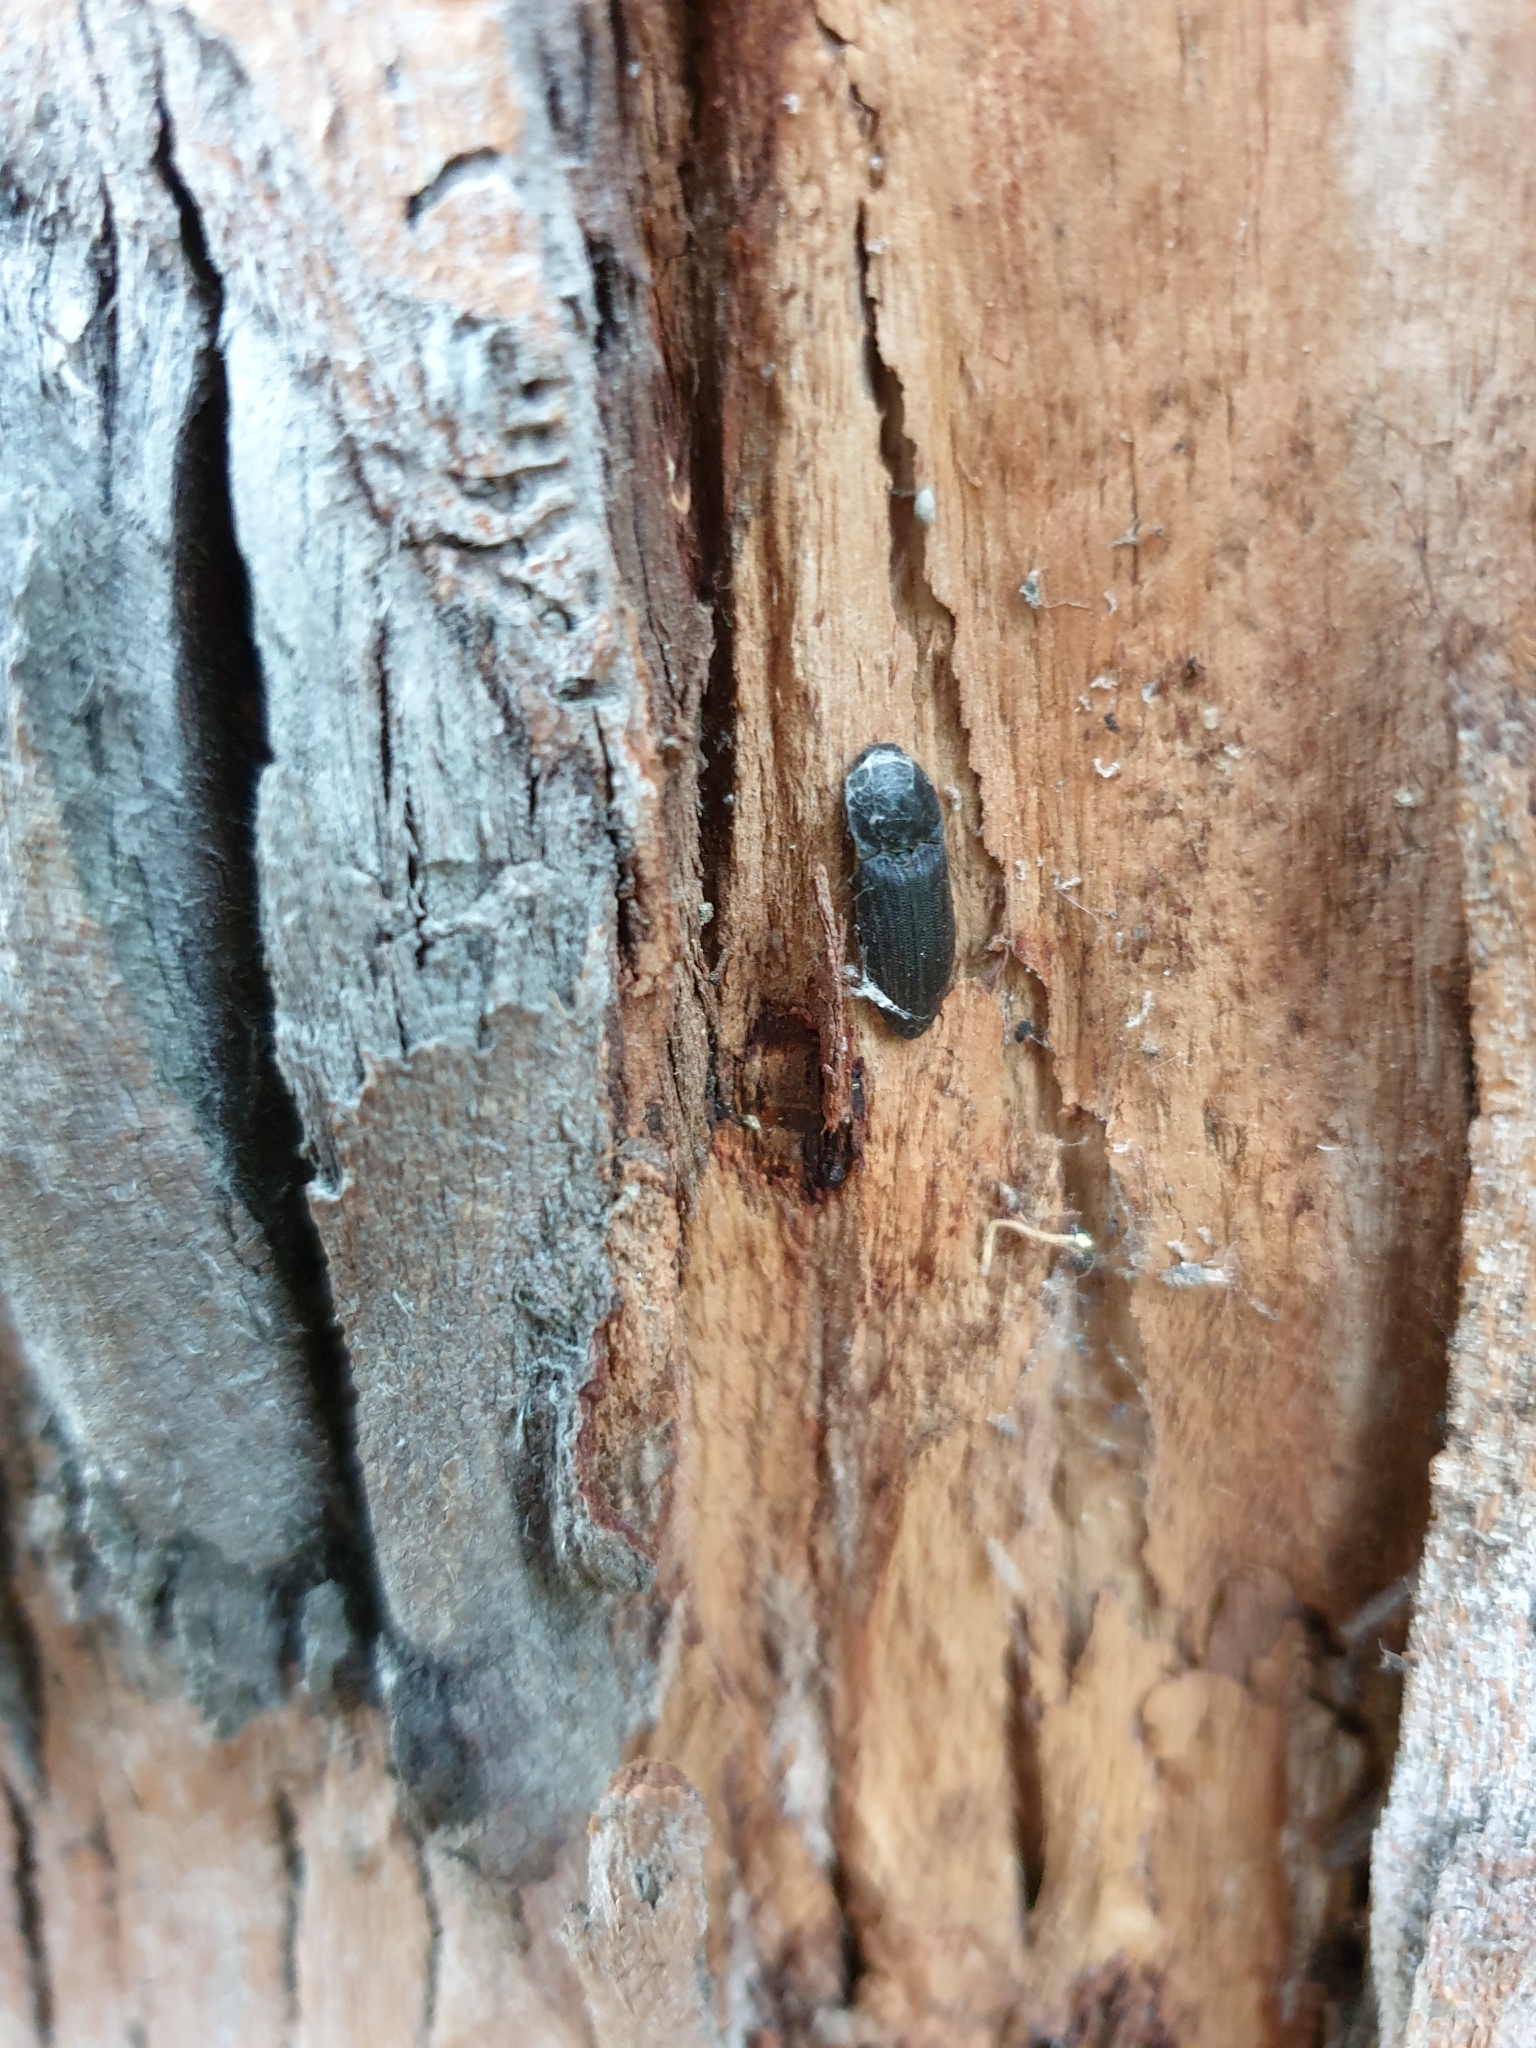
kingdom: Animalia
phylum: Arthropoda
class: Insecta
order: Coleoptera
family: Elateridae
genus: Agrypnus
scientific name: Agrypnus
